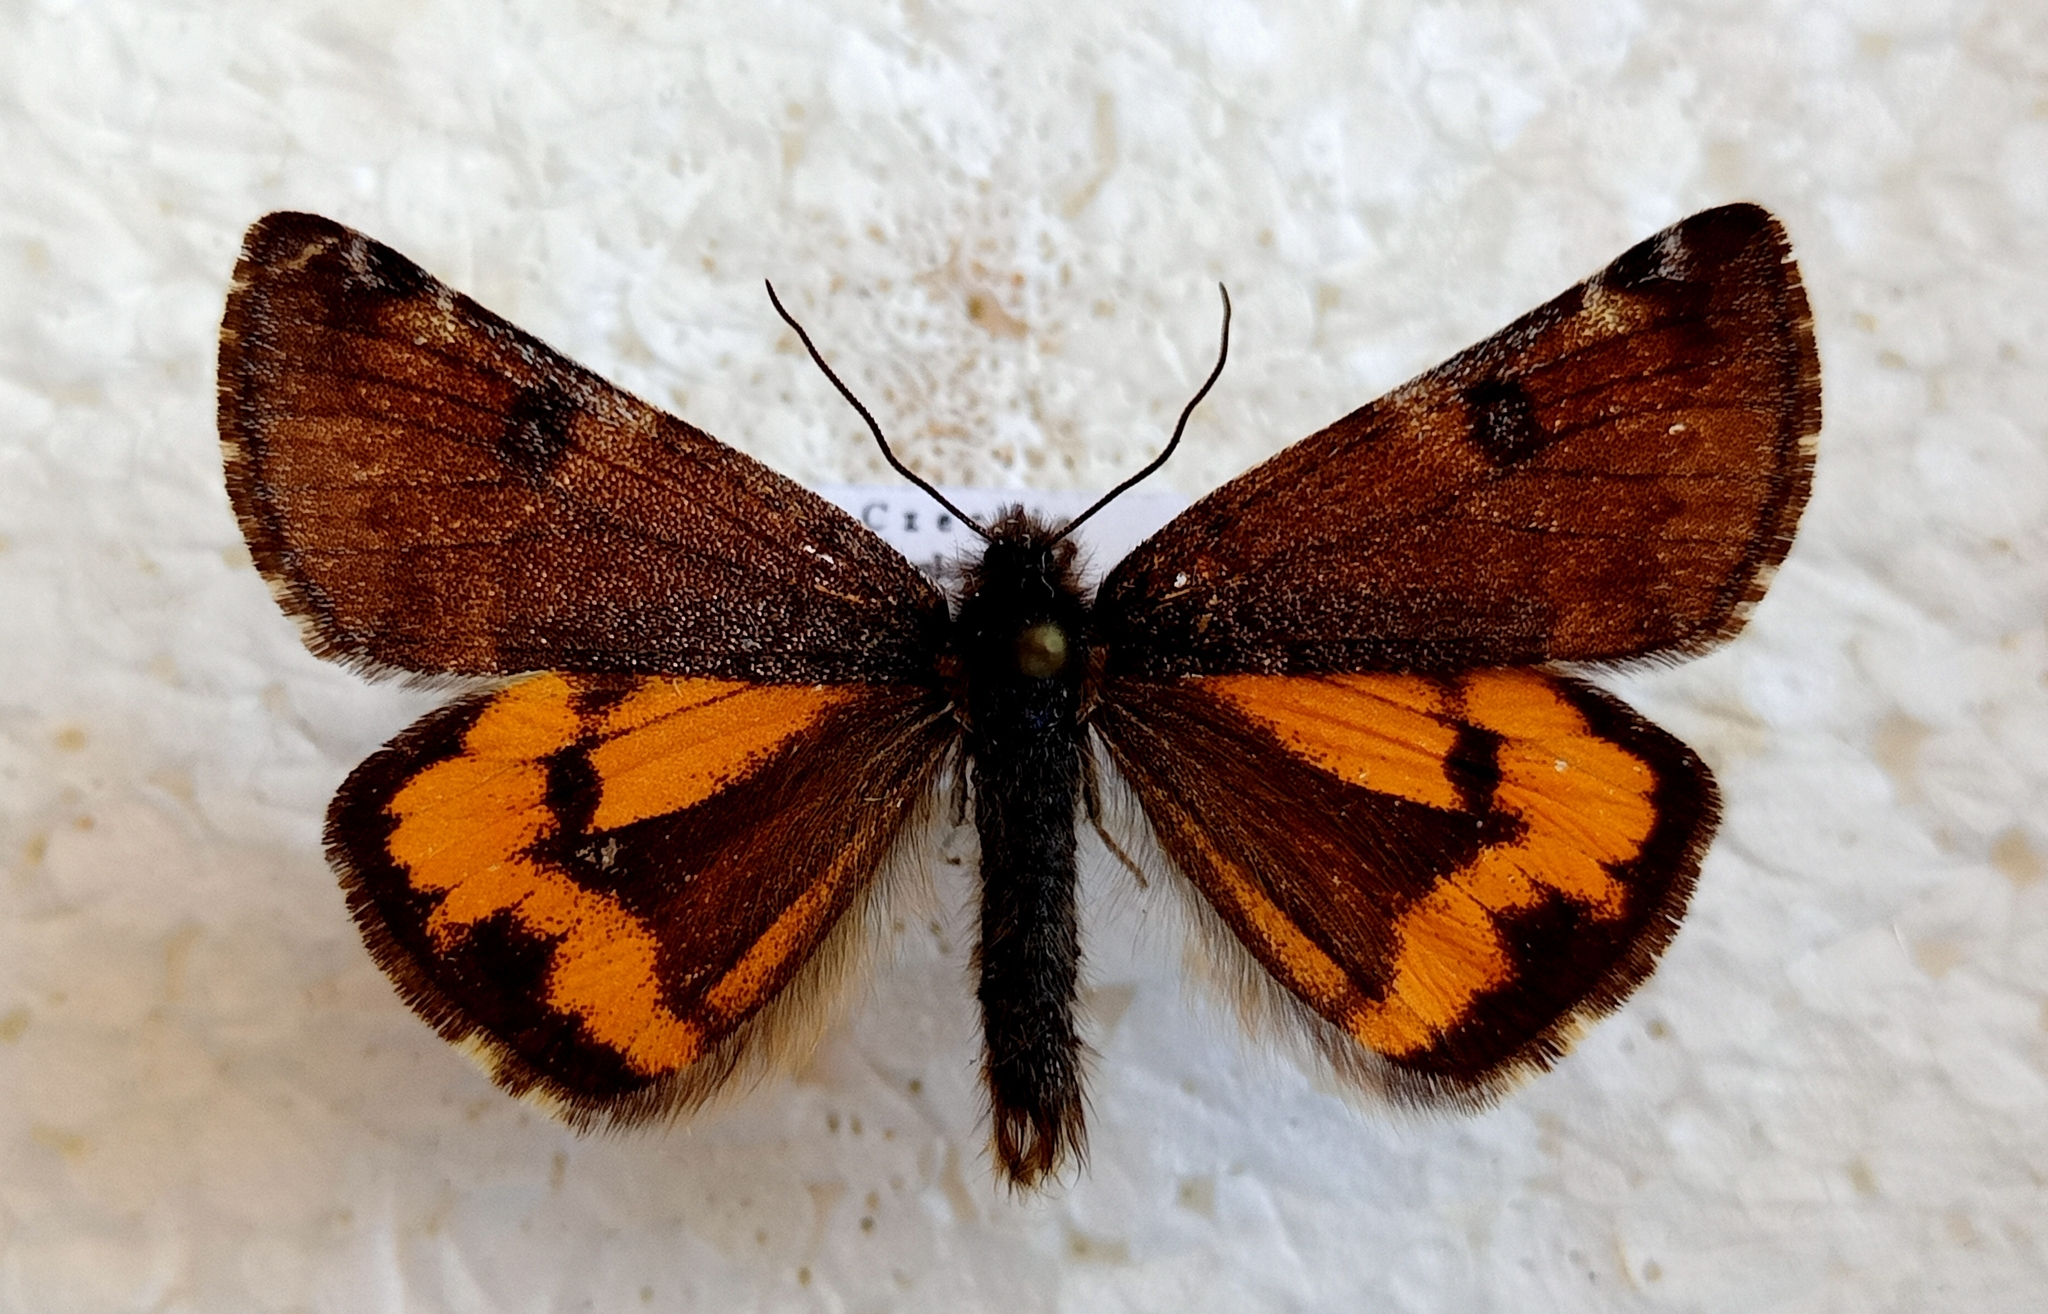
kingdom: Animalia
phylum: Arthropoda
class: Insecta
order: Lepidoptera
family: Geometridae
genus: Archiearis
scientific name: Archiearis parthenias
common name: Orange underwing
